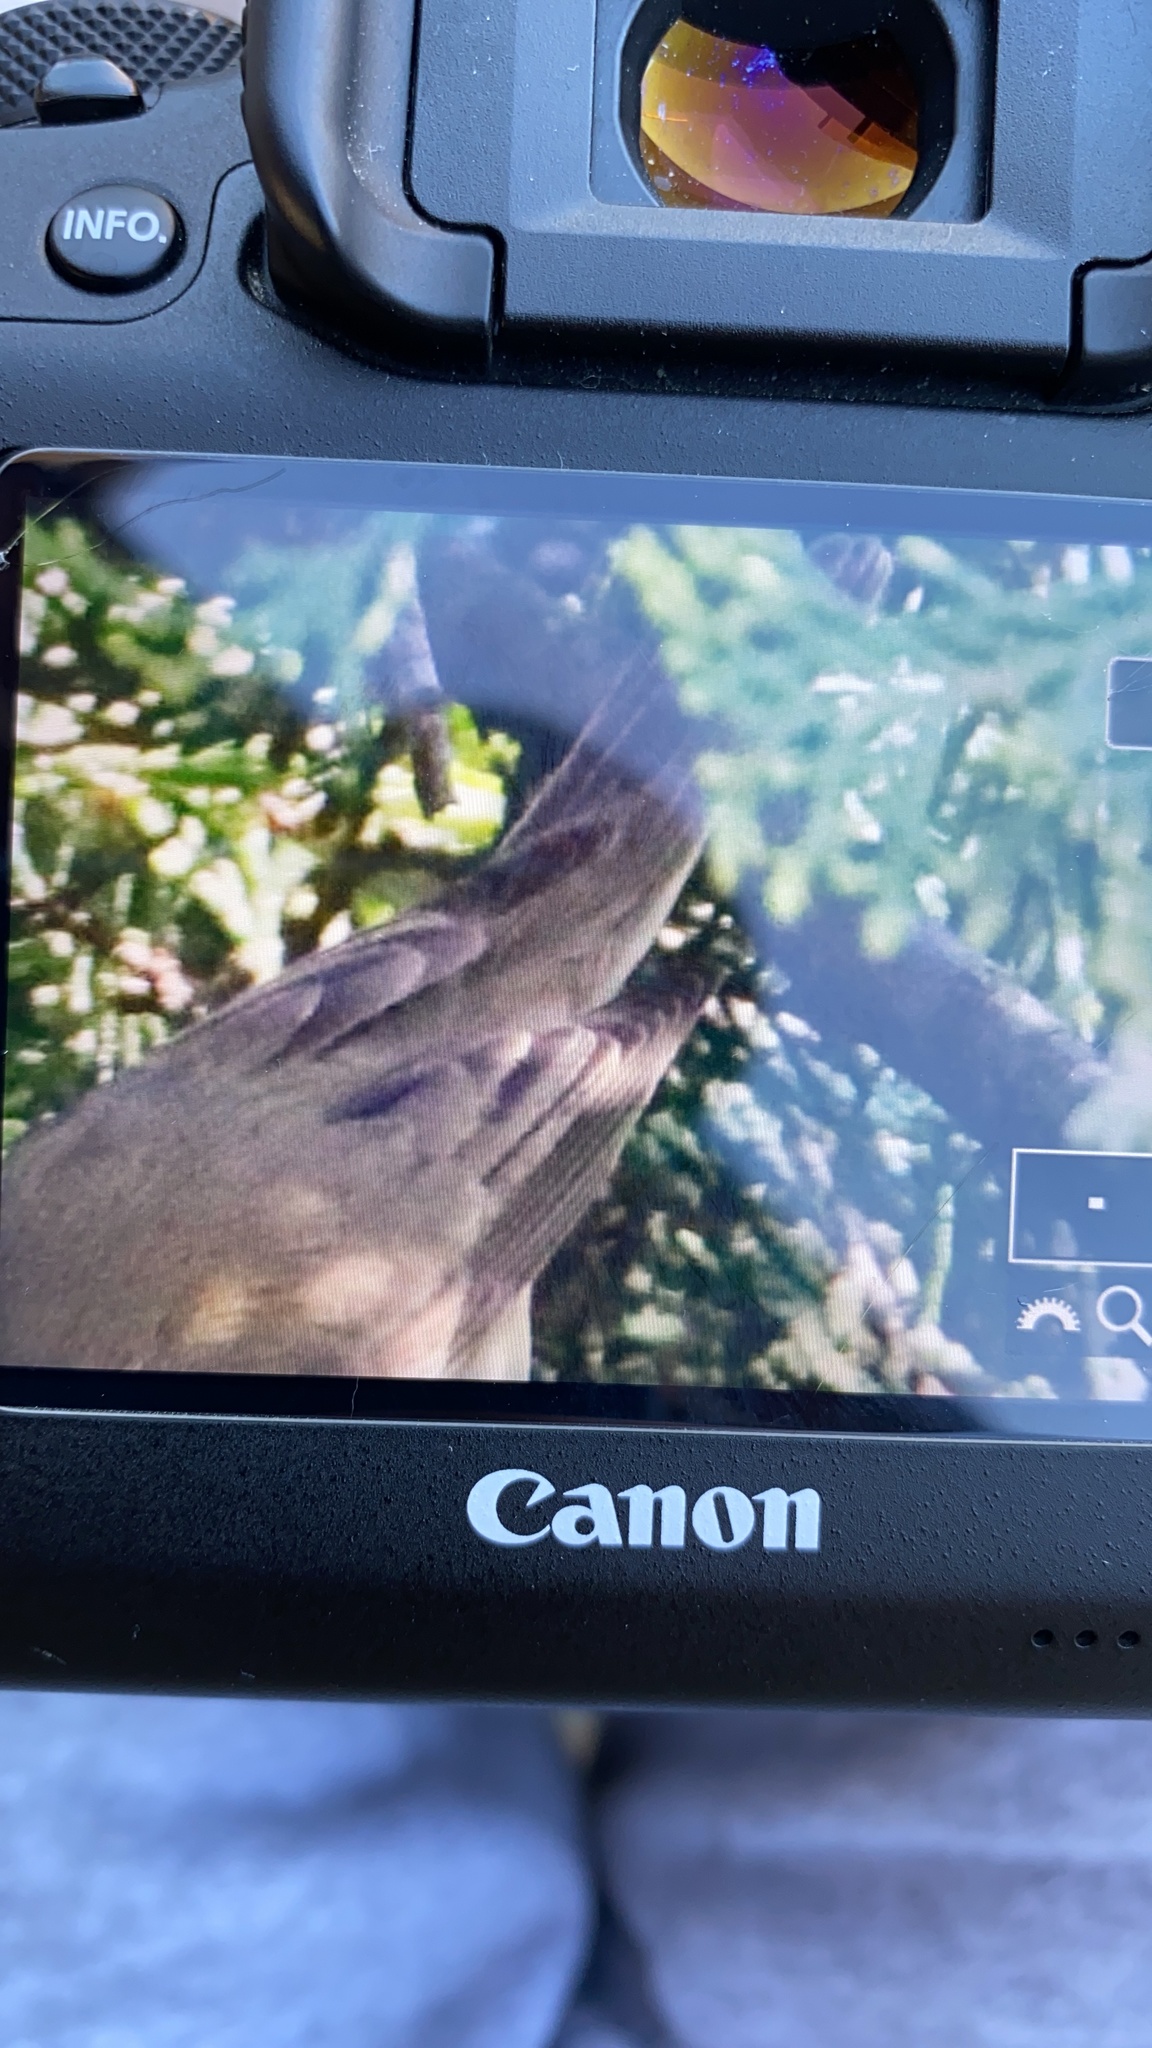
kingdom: Animalia
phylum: Chordata
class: Aves
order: Passeriformes
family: Acrocephalidae
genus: Hippolais
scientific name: Hippolais polyglotta
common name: Melodious warbler
